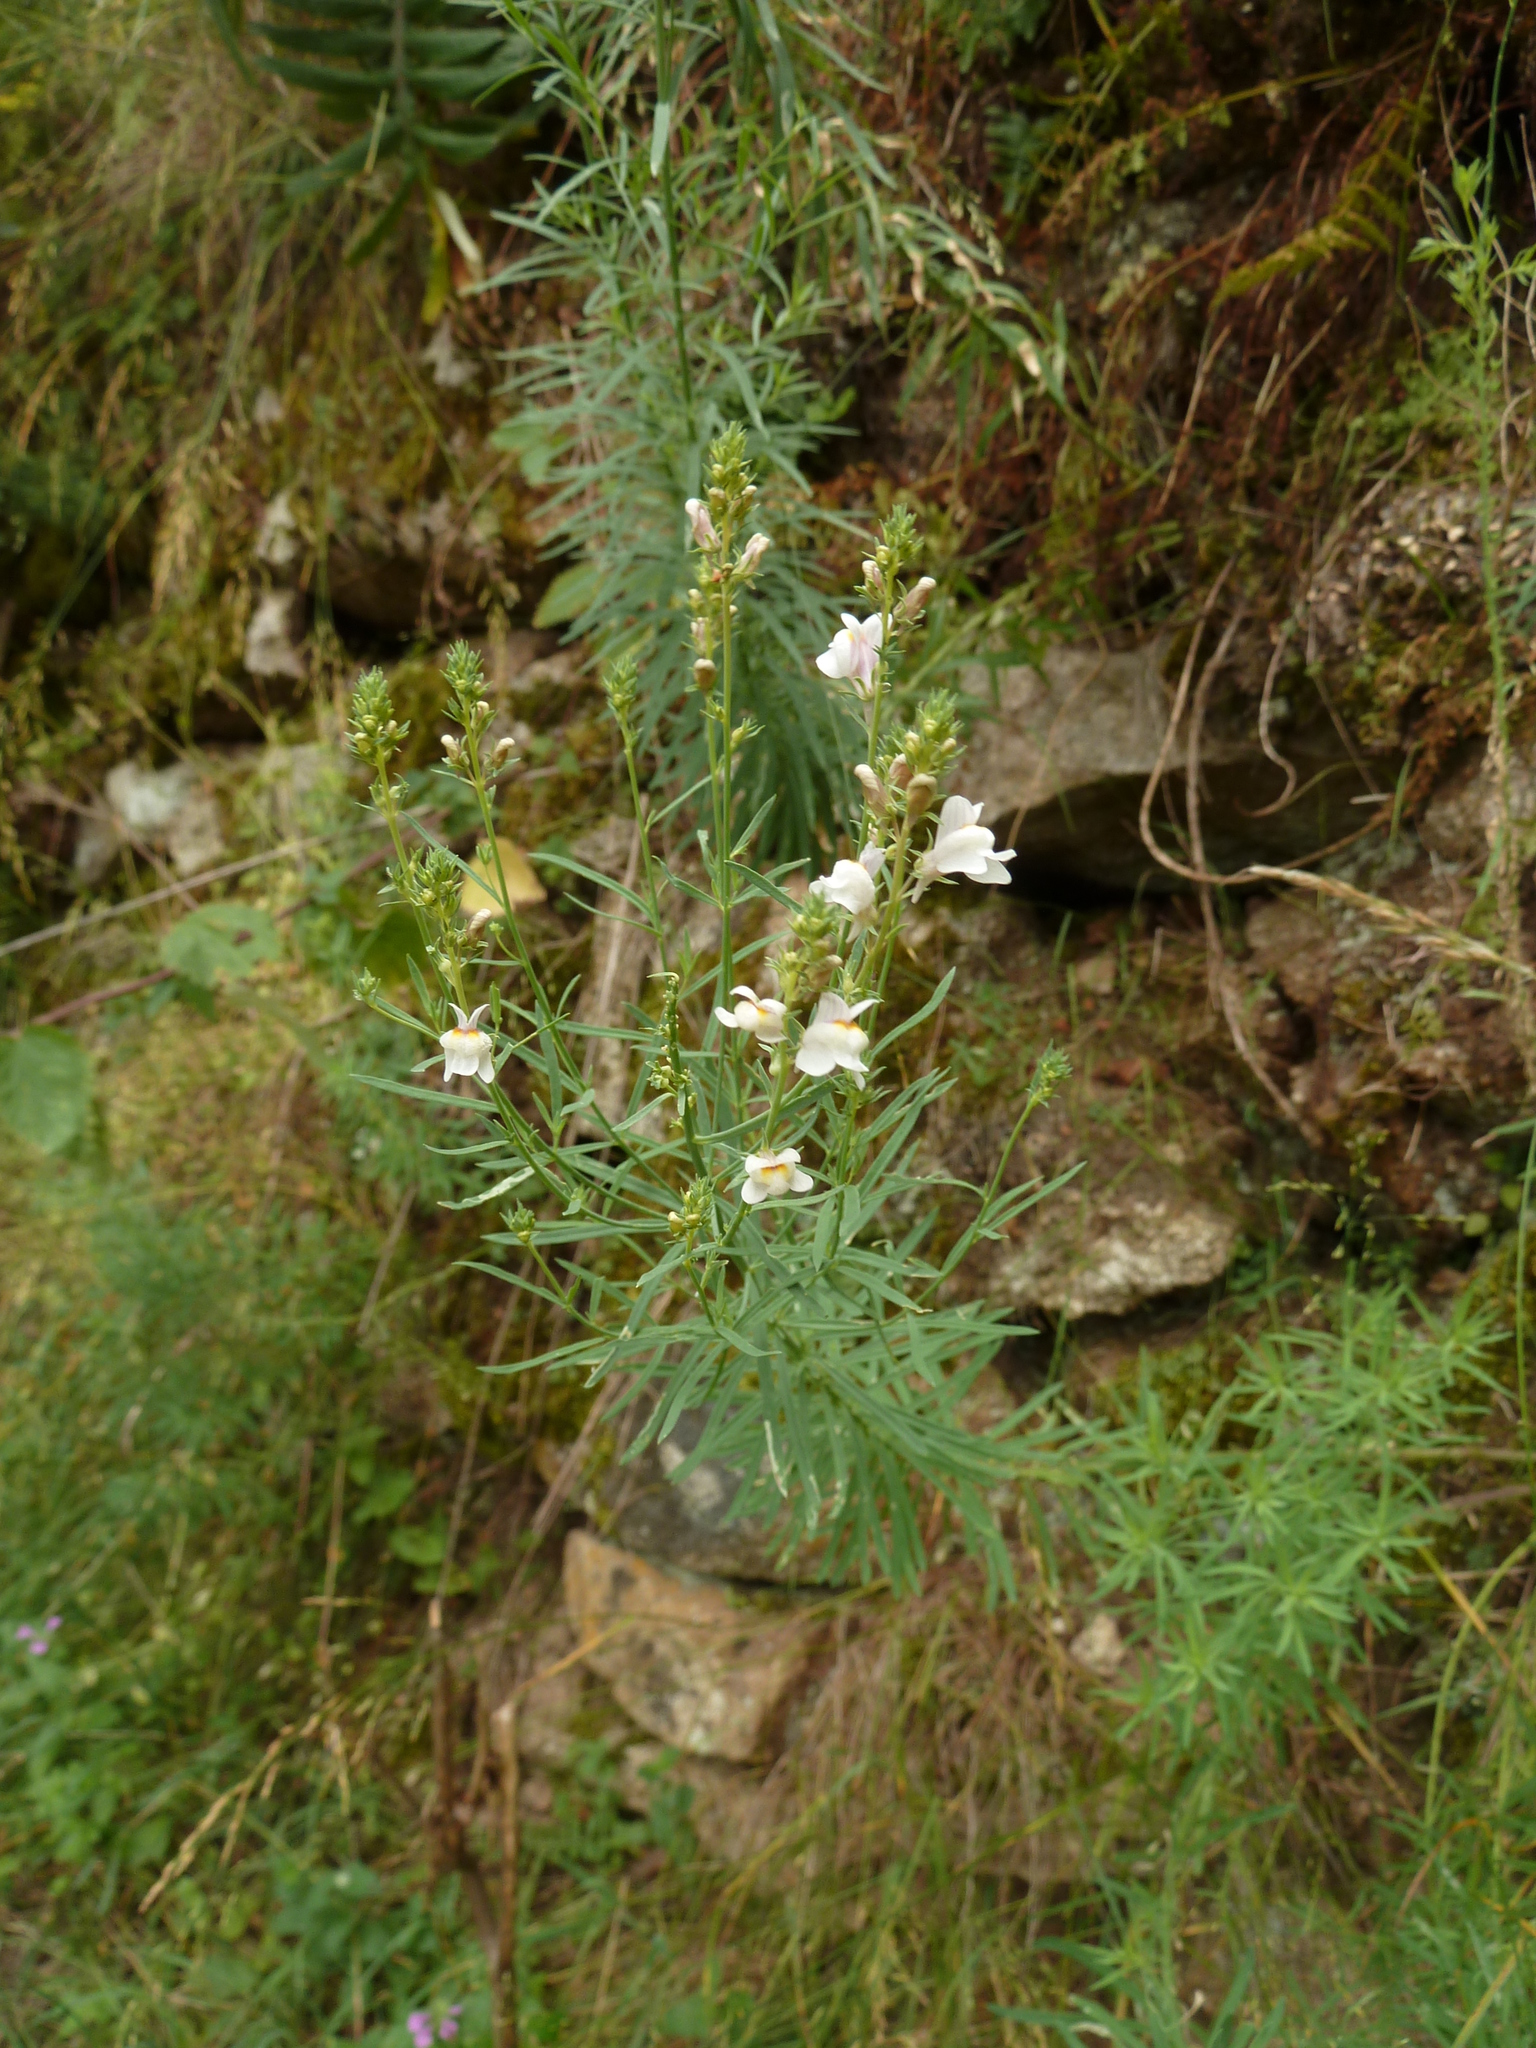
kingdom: Plantae
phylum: Tracheophyta
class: Magnoliopsida
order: Lamiales
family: Plantaginaceae
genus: Linaria
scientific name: Linaria repens
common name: Pale toadflax
